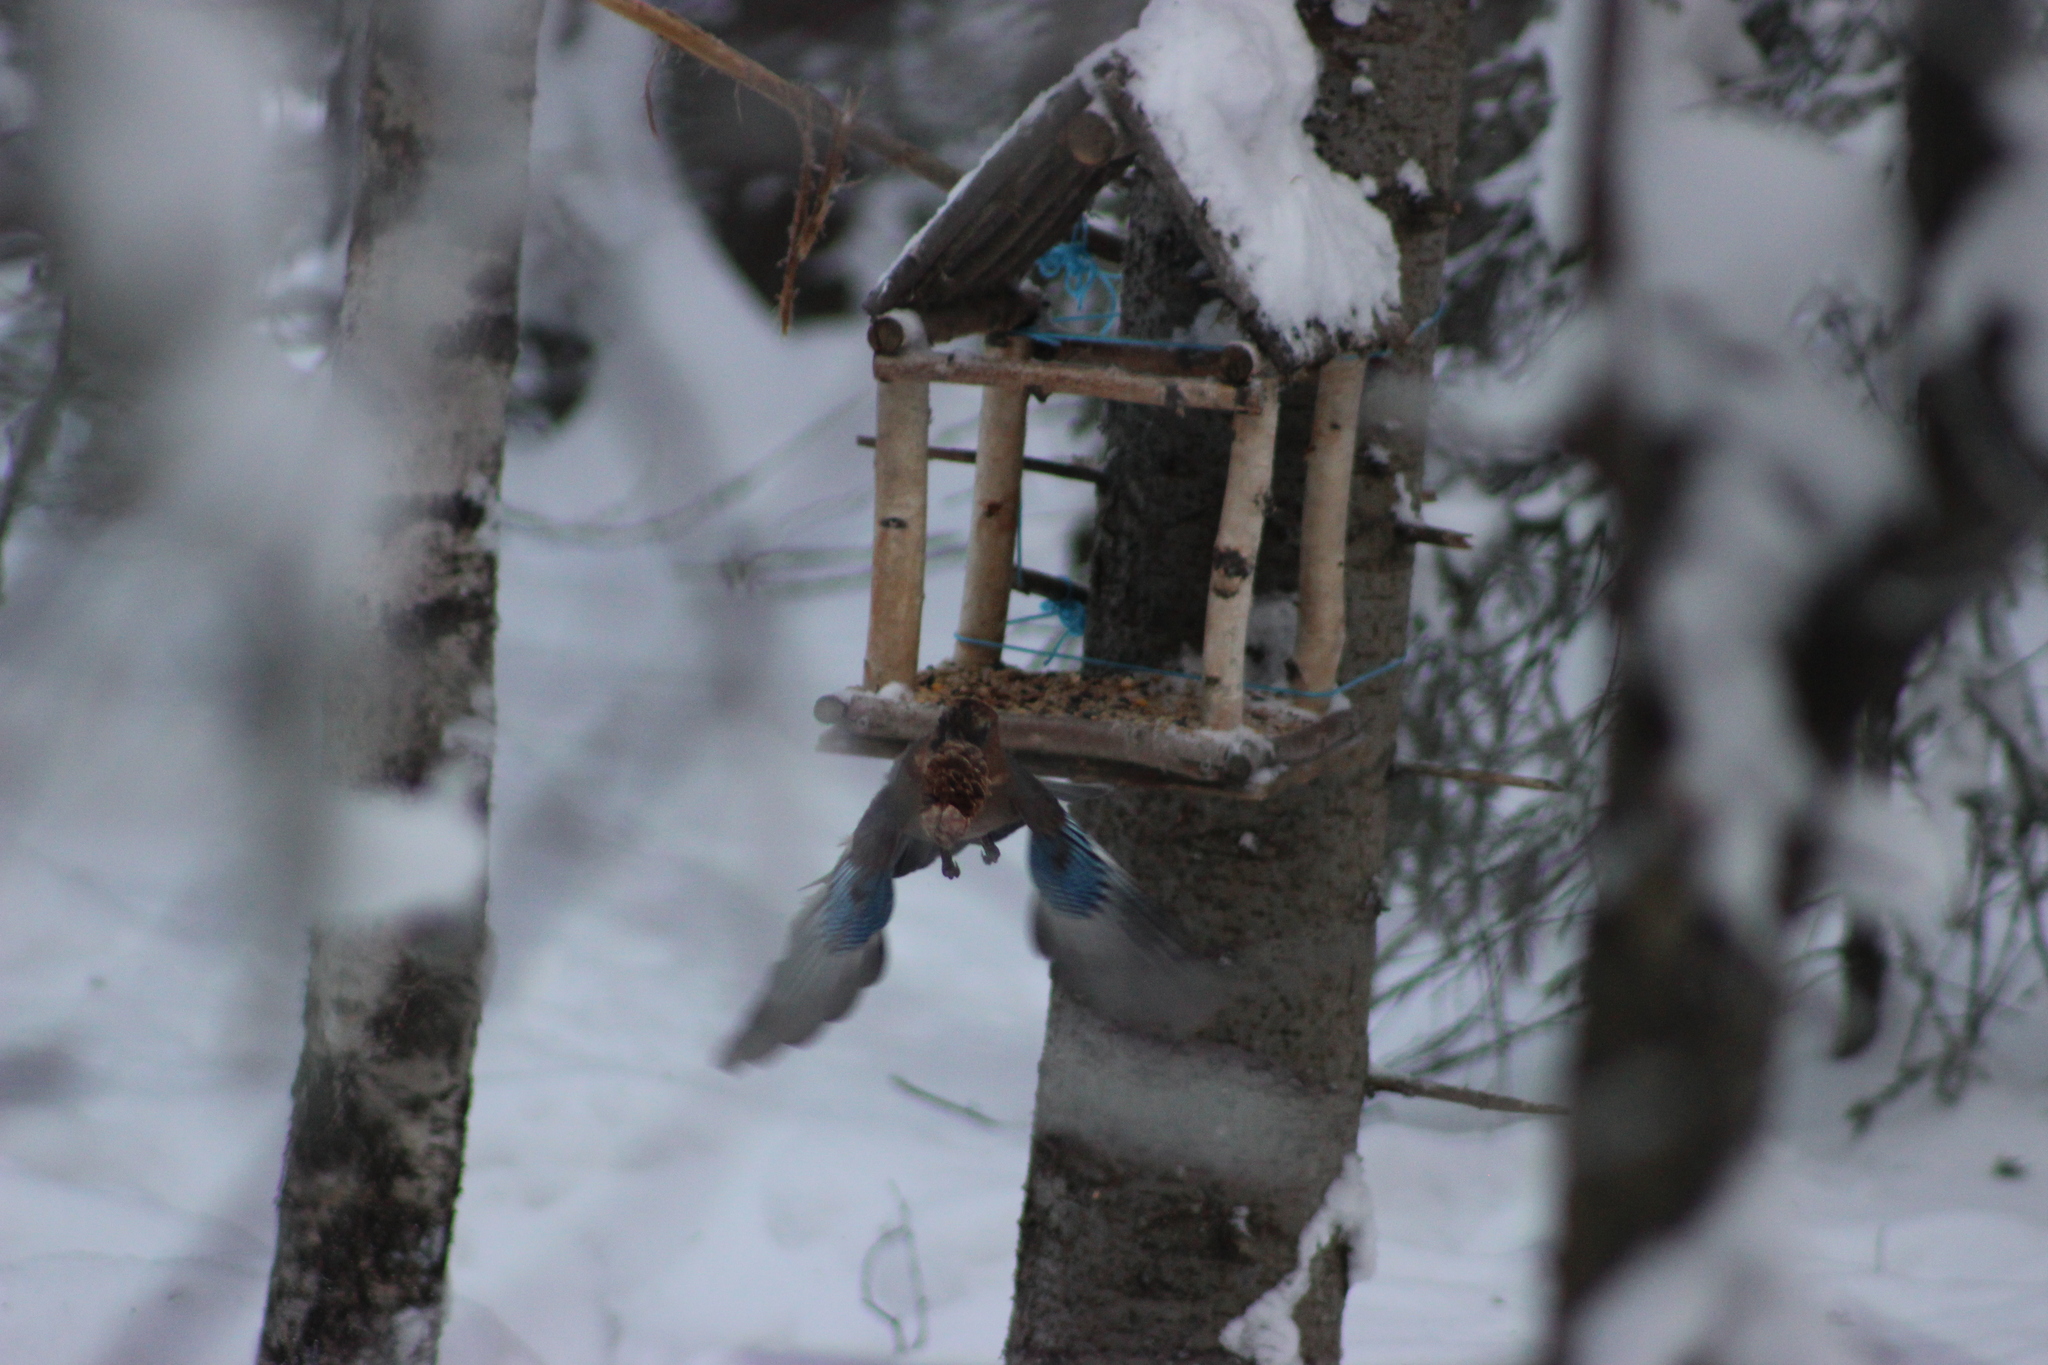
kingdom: Animalia
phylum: Chordata
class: Aves
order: Passeriformes
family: Corvidae
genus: Garrulus
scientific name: Garrulus glandarius
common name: Eurasian jay
